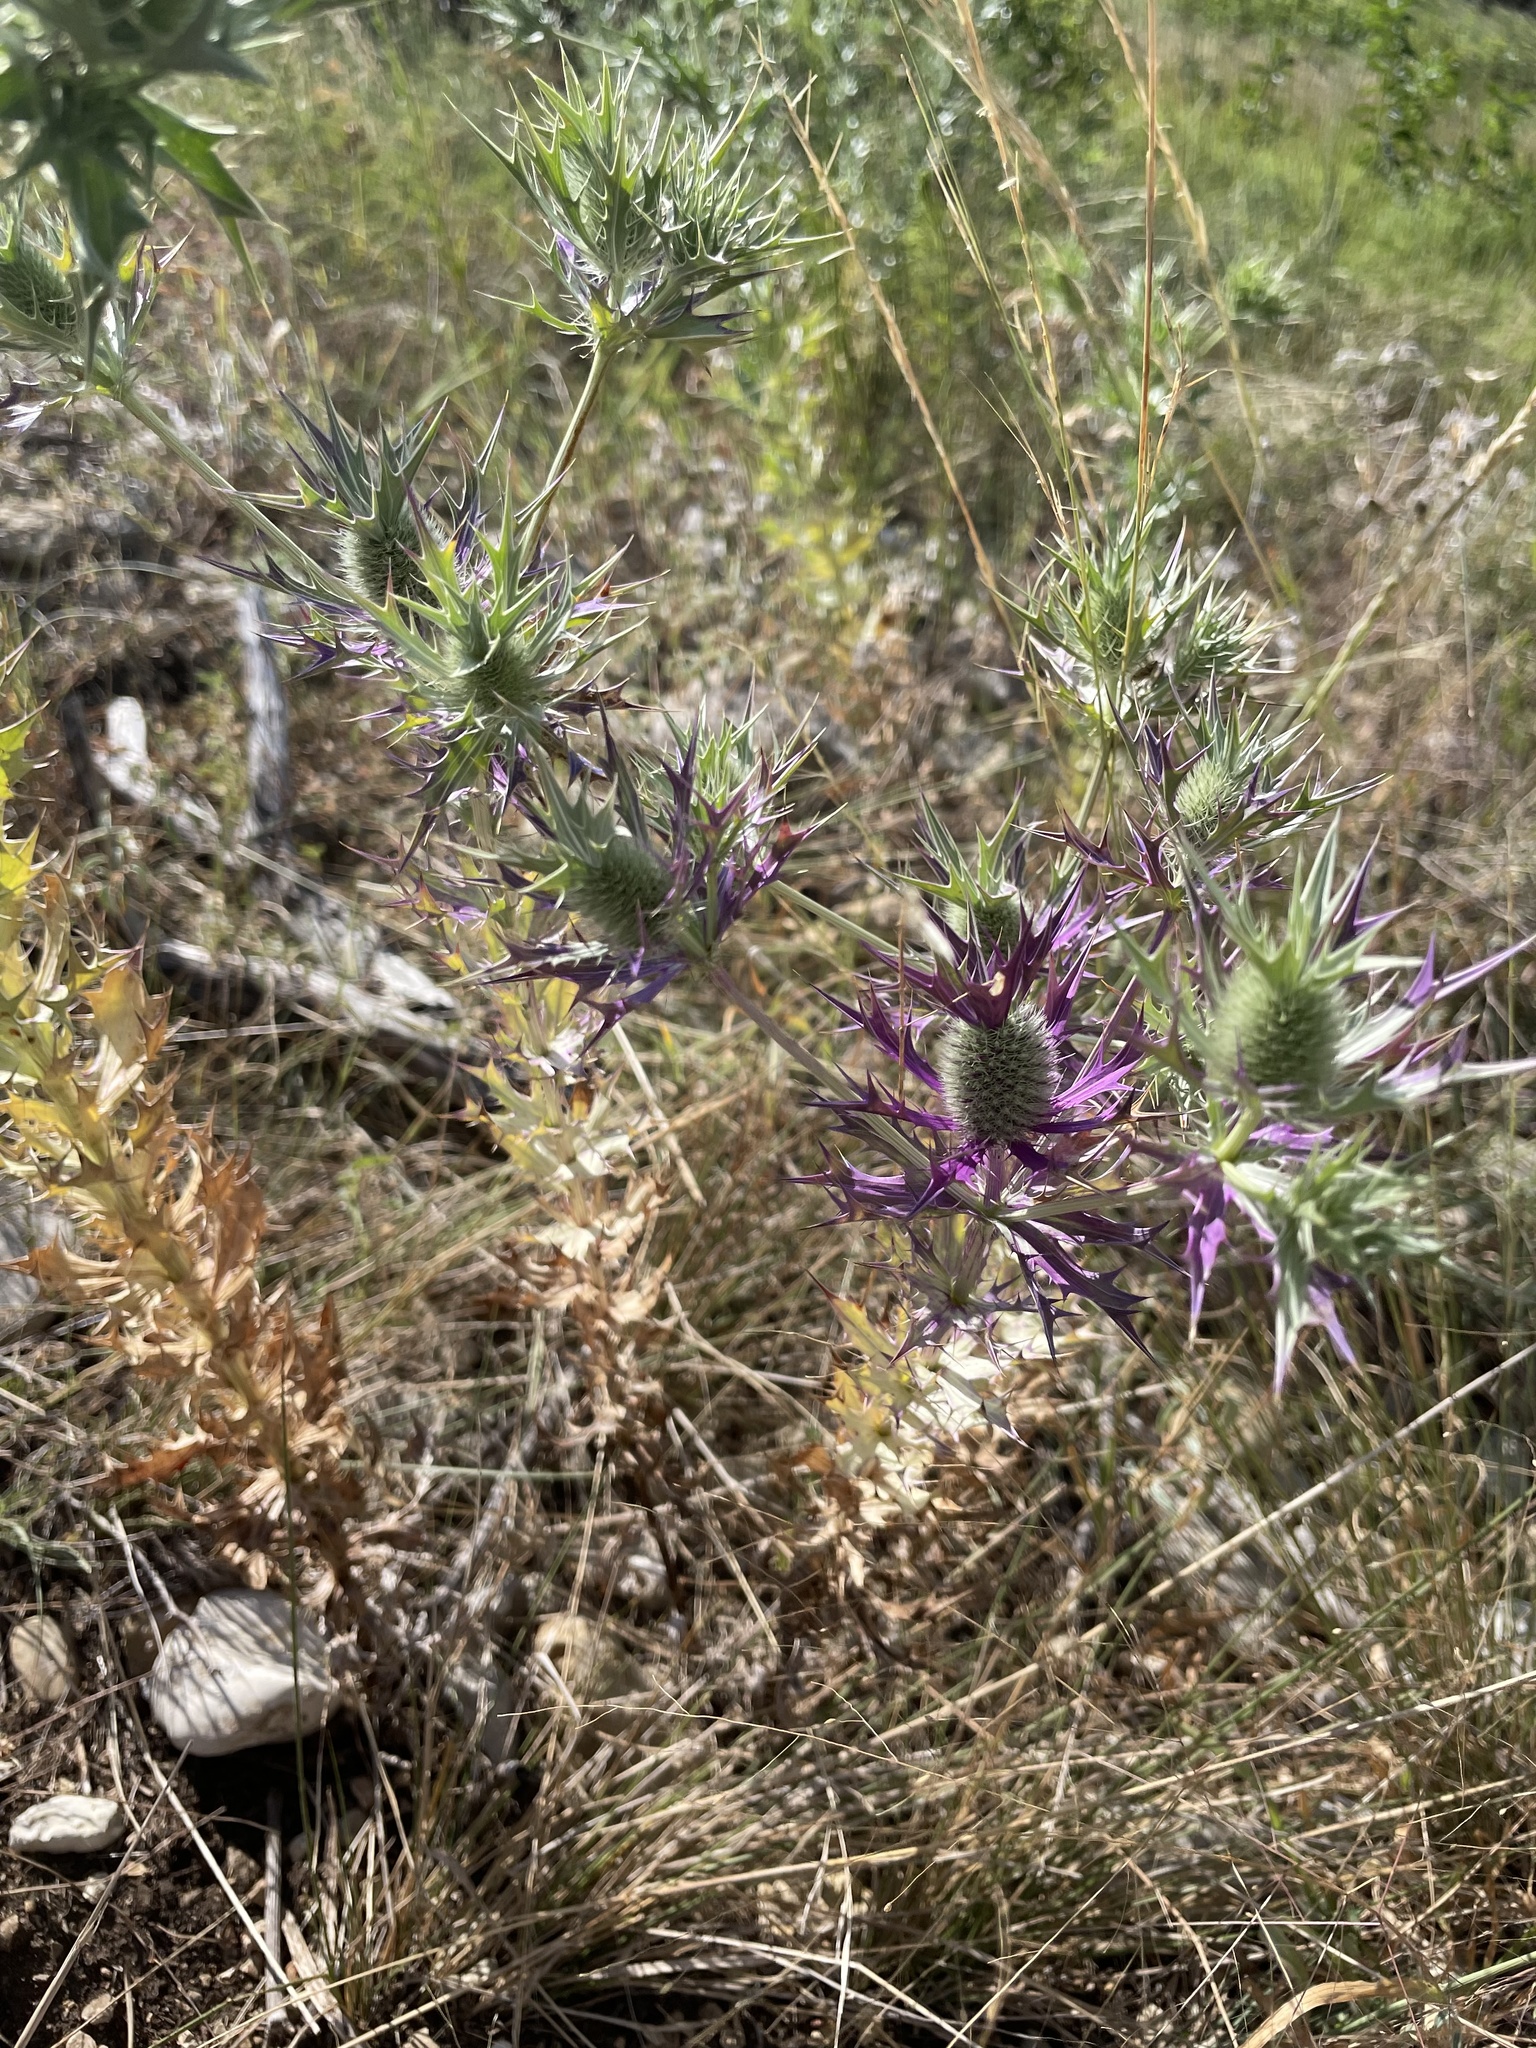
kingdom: Plantae
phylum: Tracheophyta
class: Magnoliopsida
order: Apiales
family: Apiaceae
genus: Eryngium
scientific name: Eryngium leavenworthii
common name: Leavenworth's eryngo
